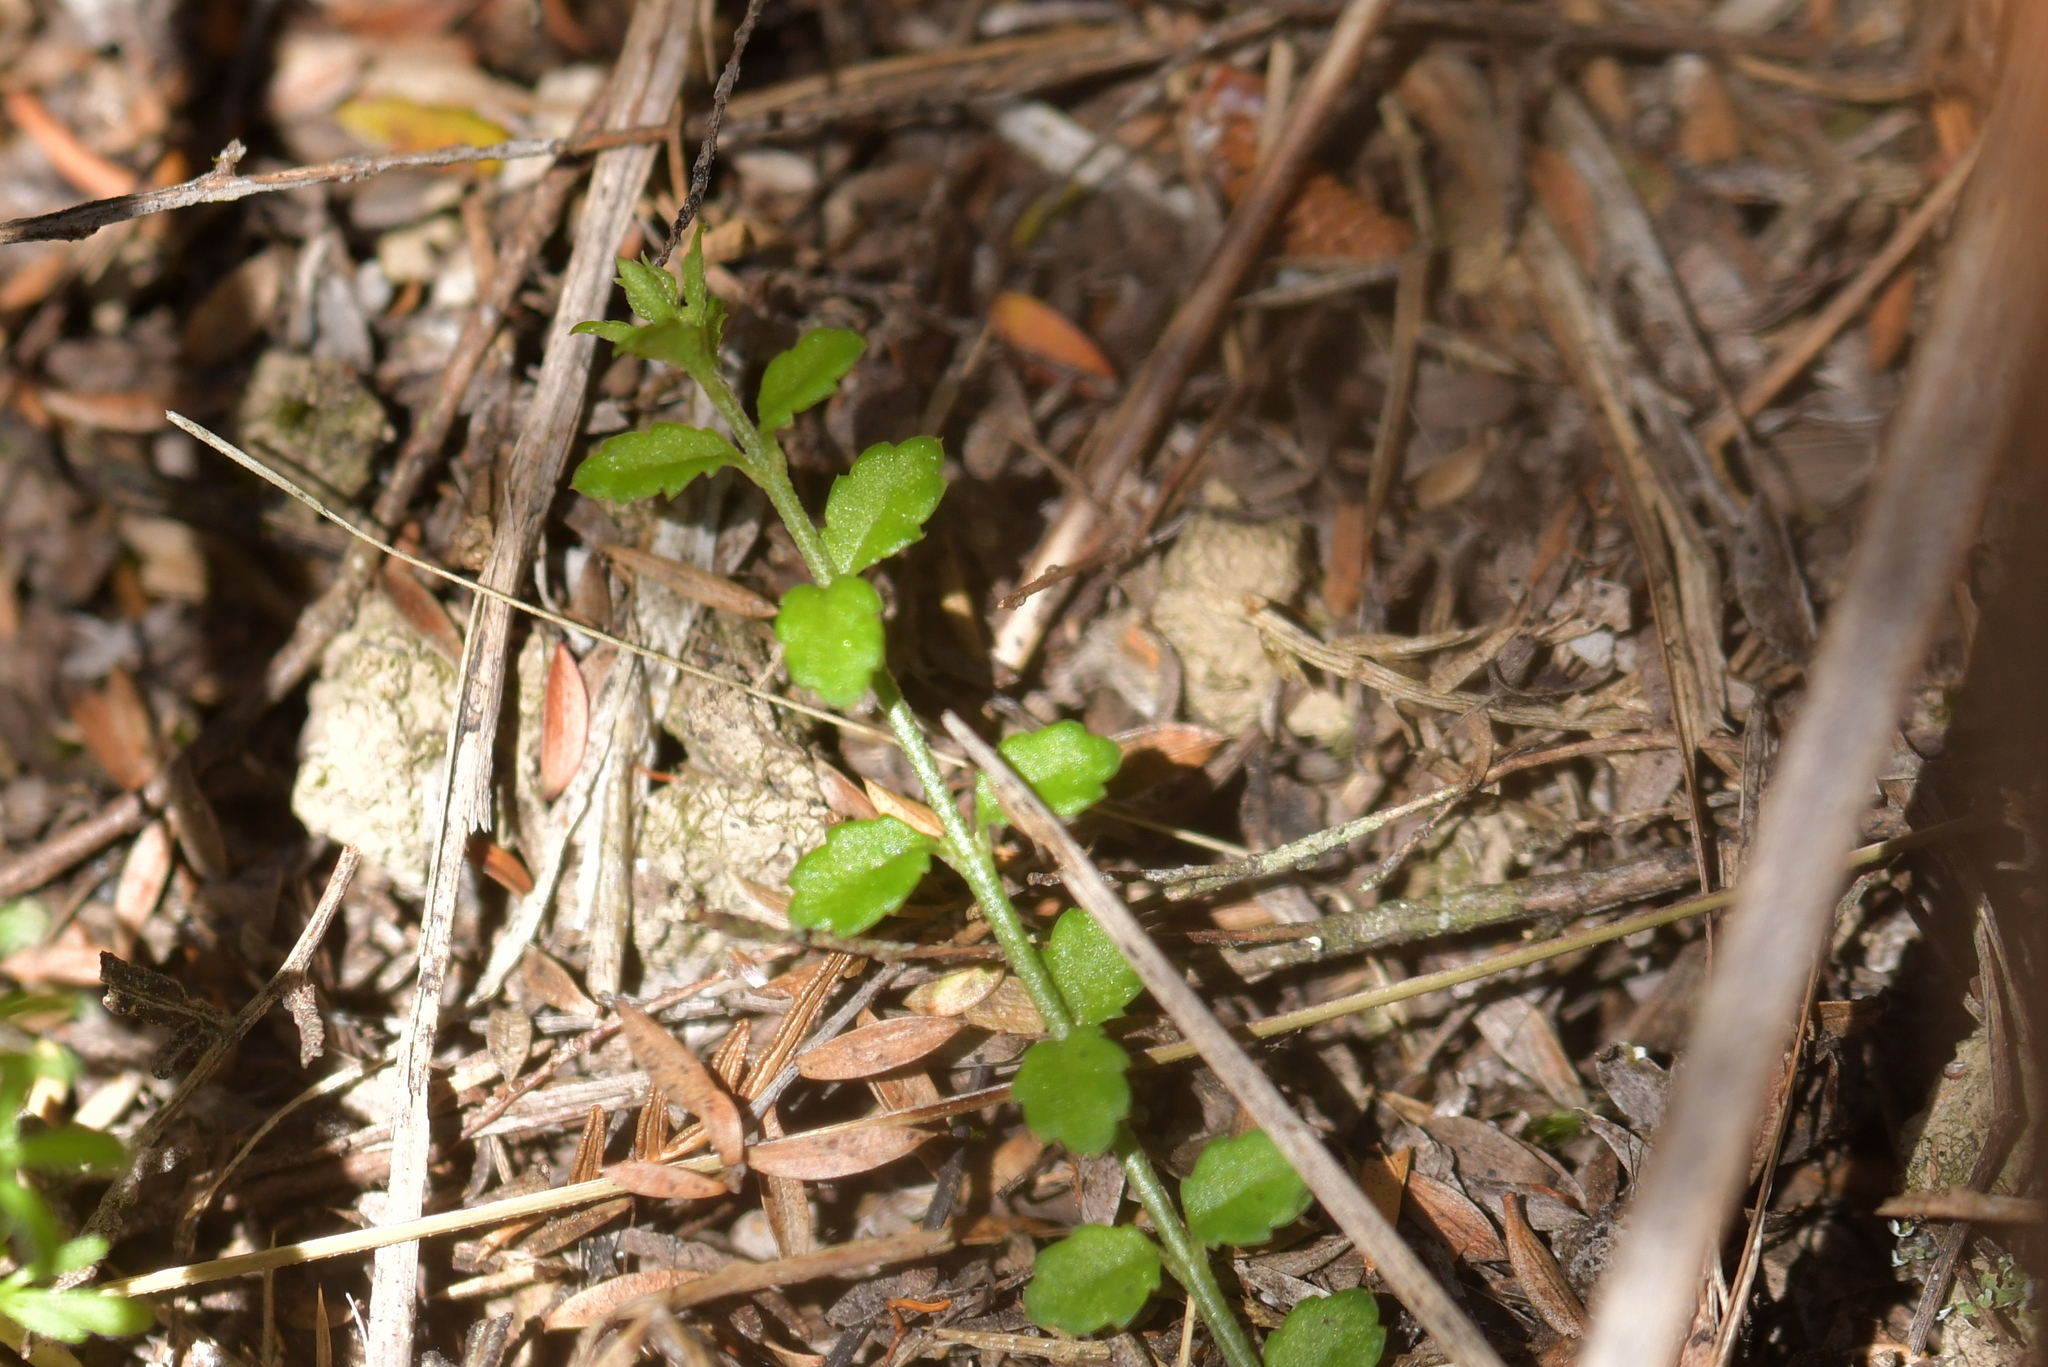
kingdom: Plantae
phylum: Tracheophyta
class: Magnoliopsida
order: Saxifragales
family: Haloragaceae
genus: Gonocarpus
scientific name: Gonocarpus incanus
